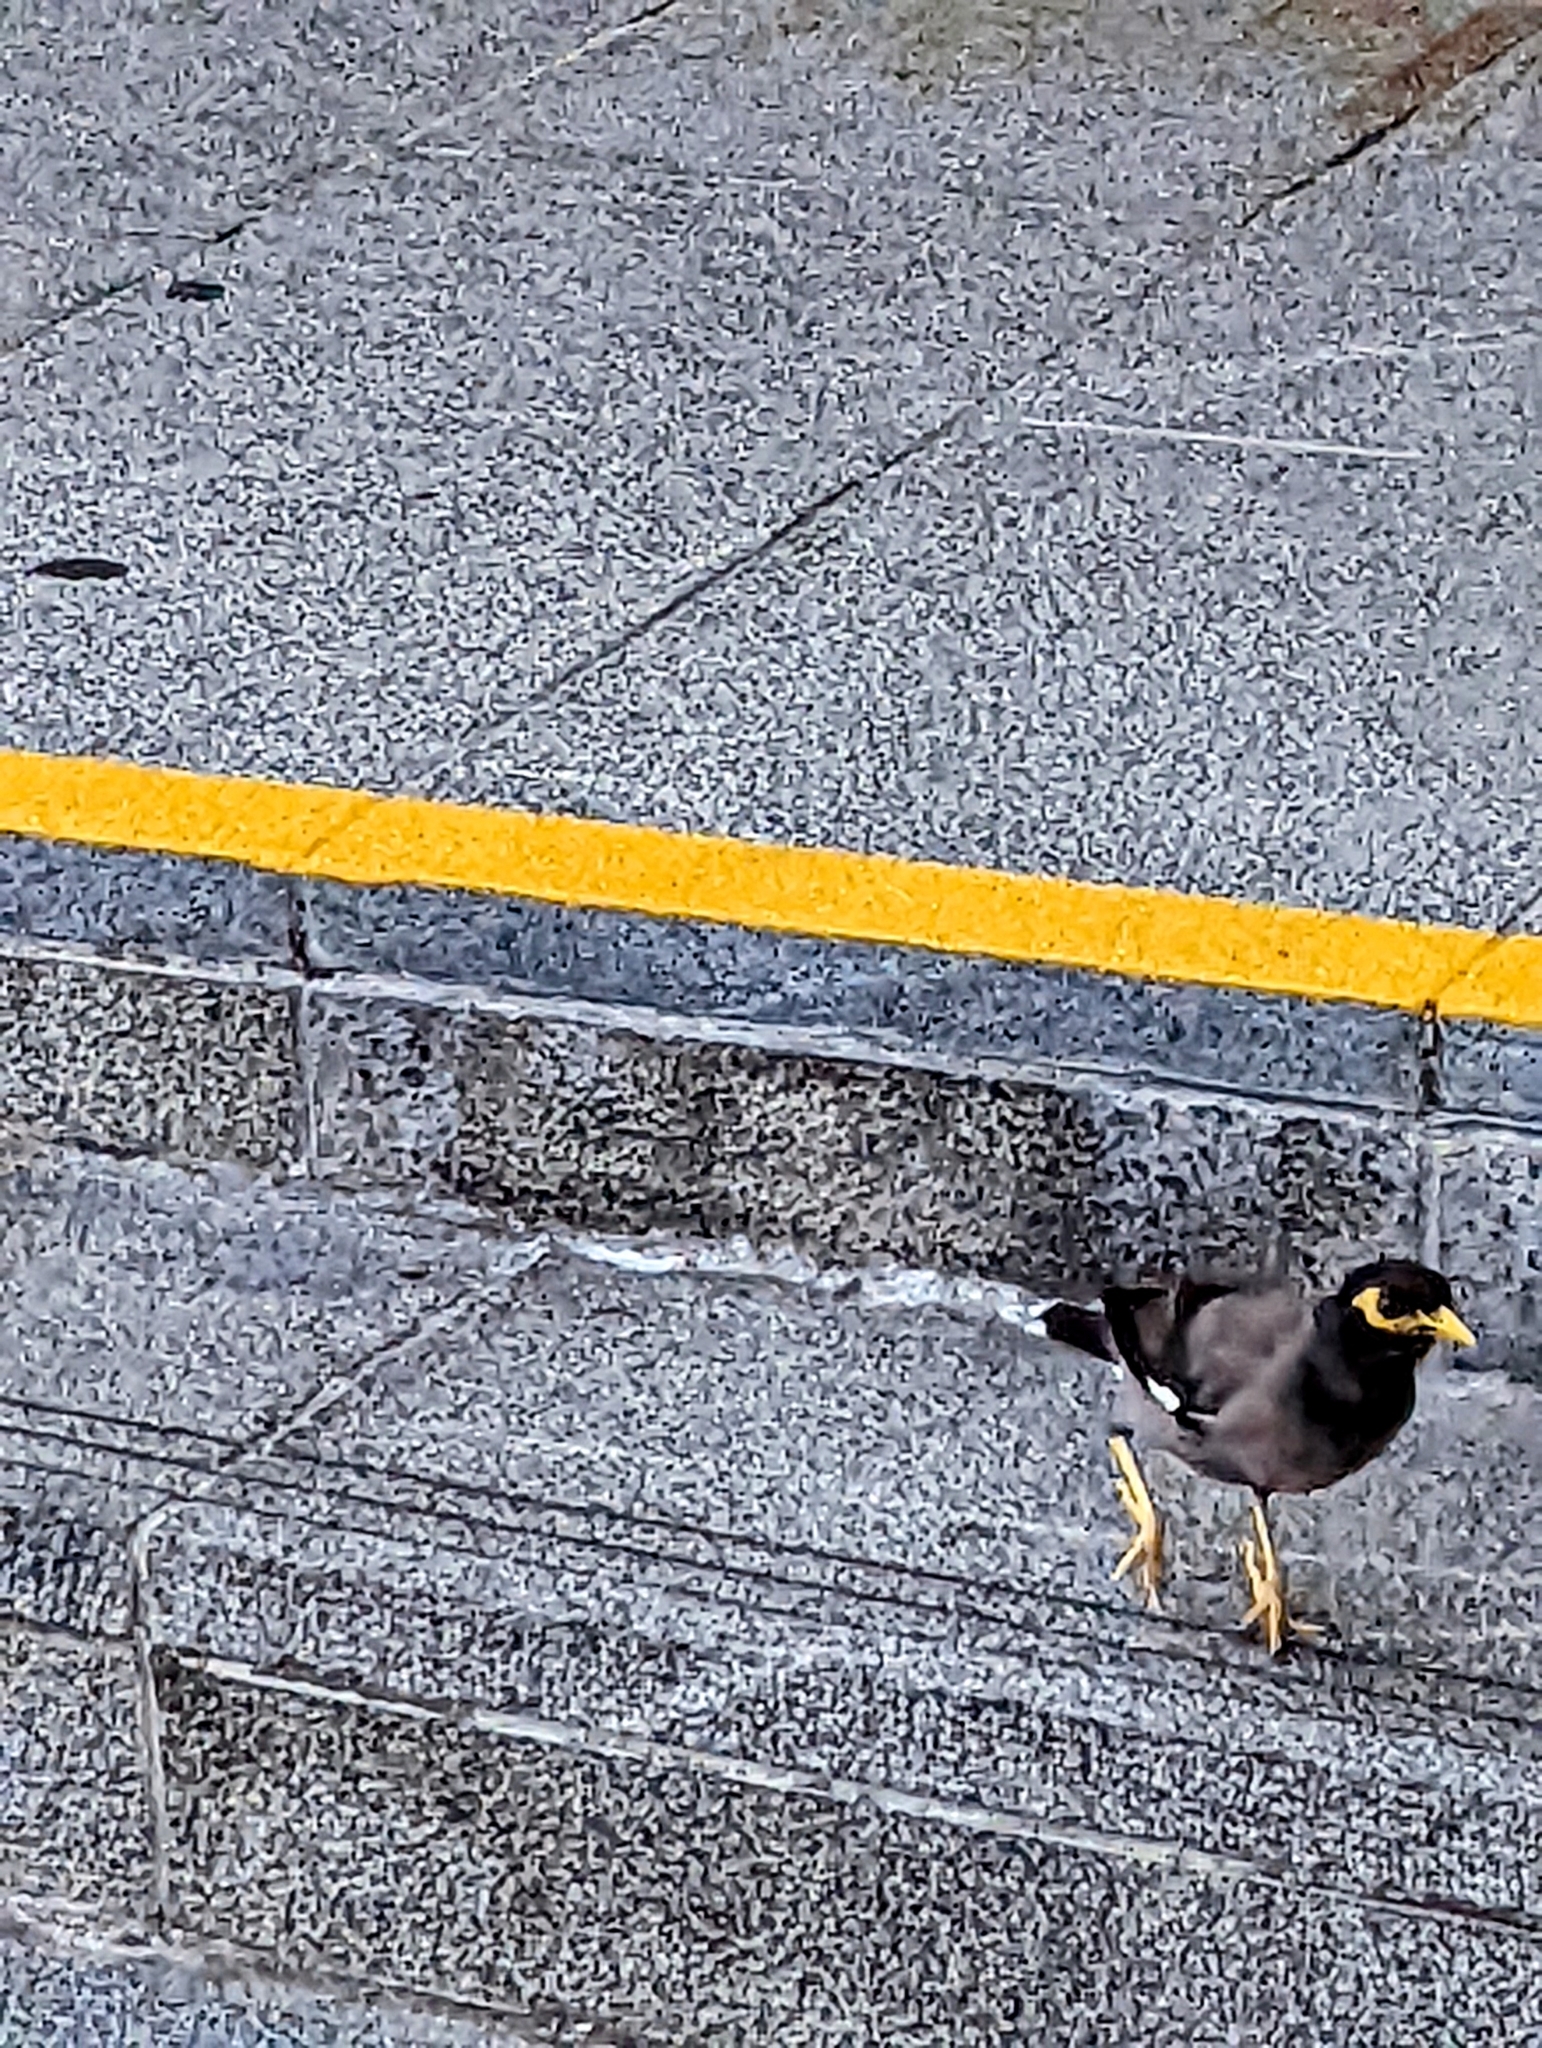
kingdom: Animalia
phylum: Chordata
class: Aves
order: Passeriformes
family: Sturnidae
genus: Acridotheres
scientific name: Acridotheres tristis
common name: Common myna
